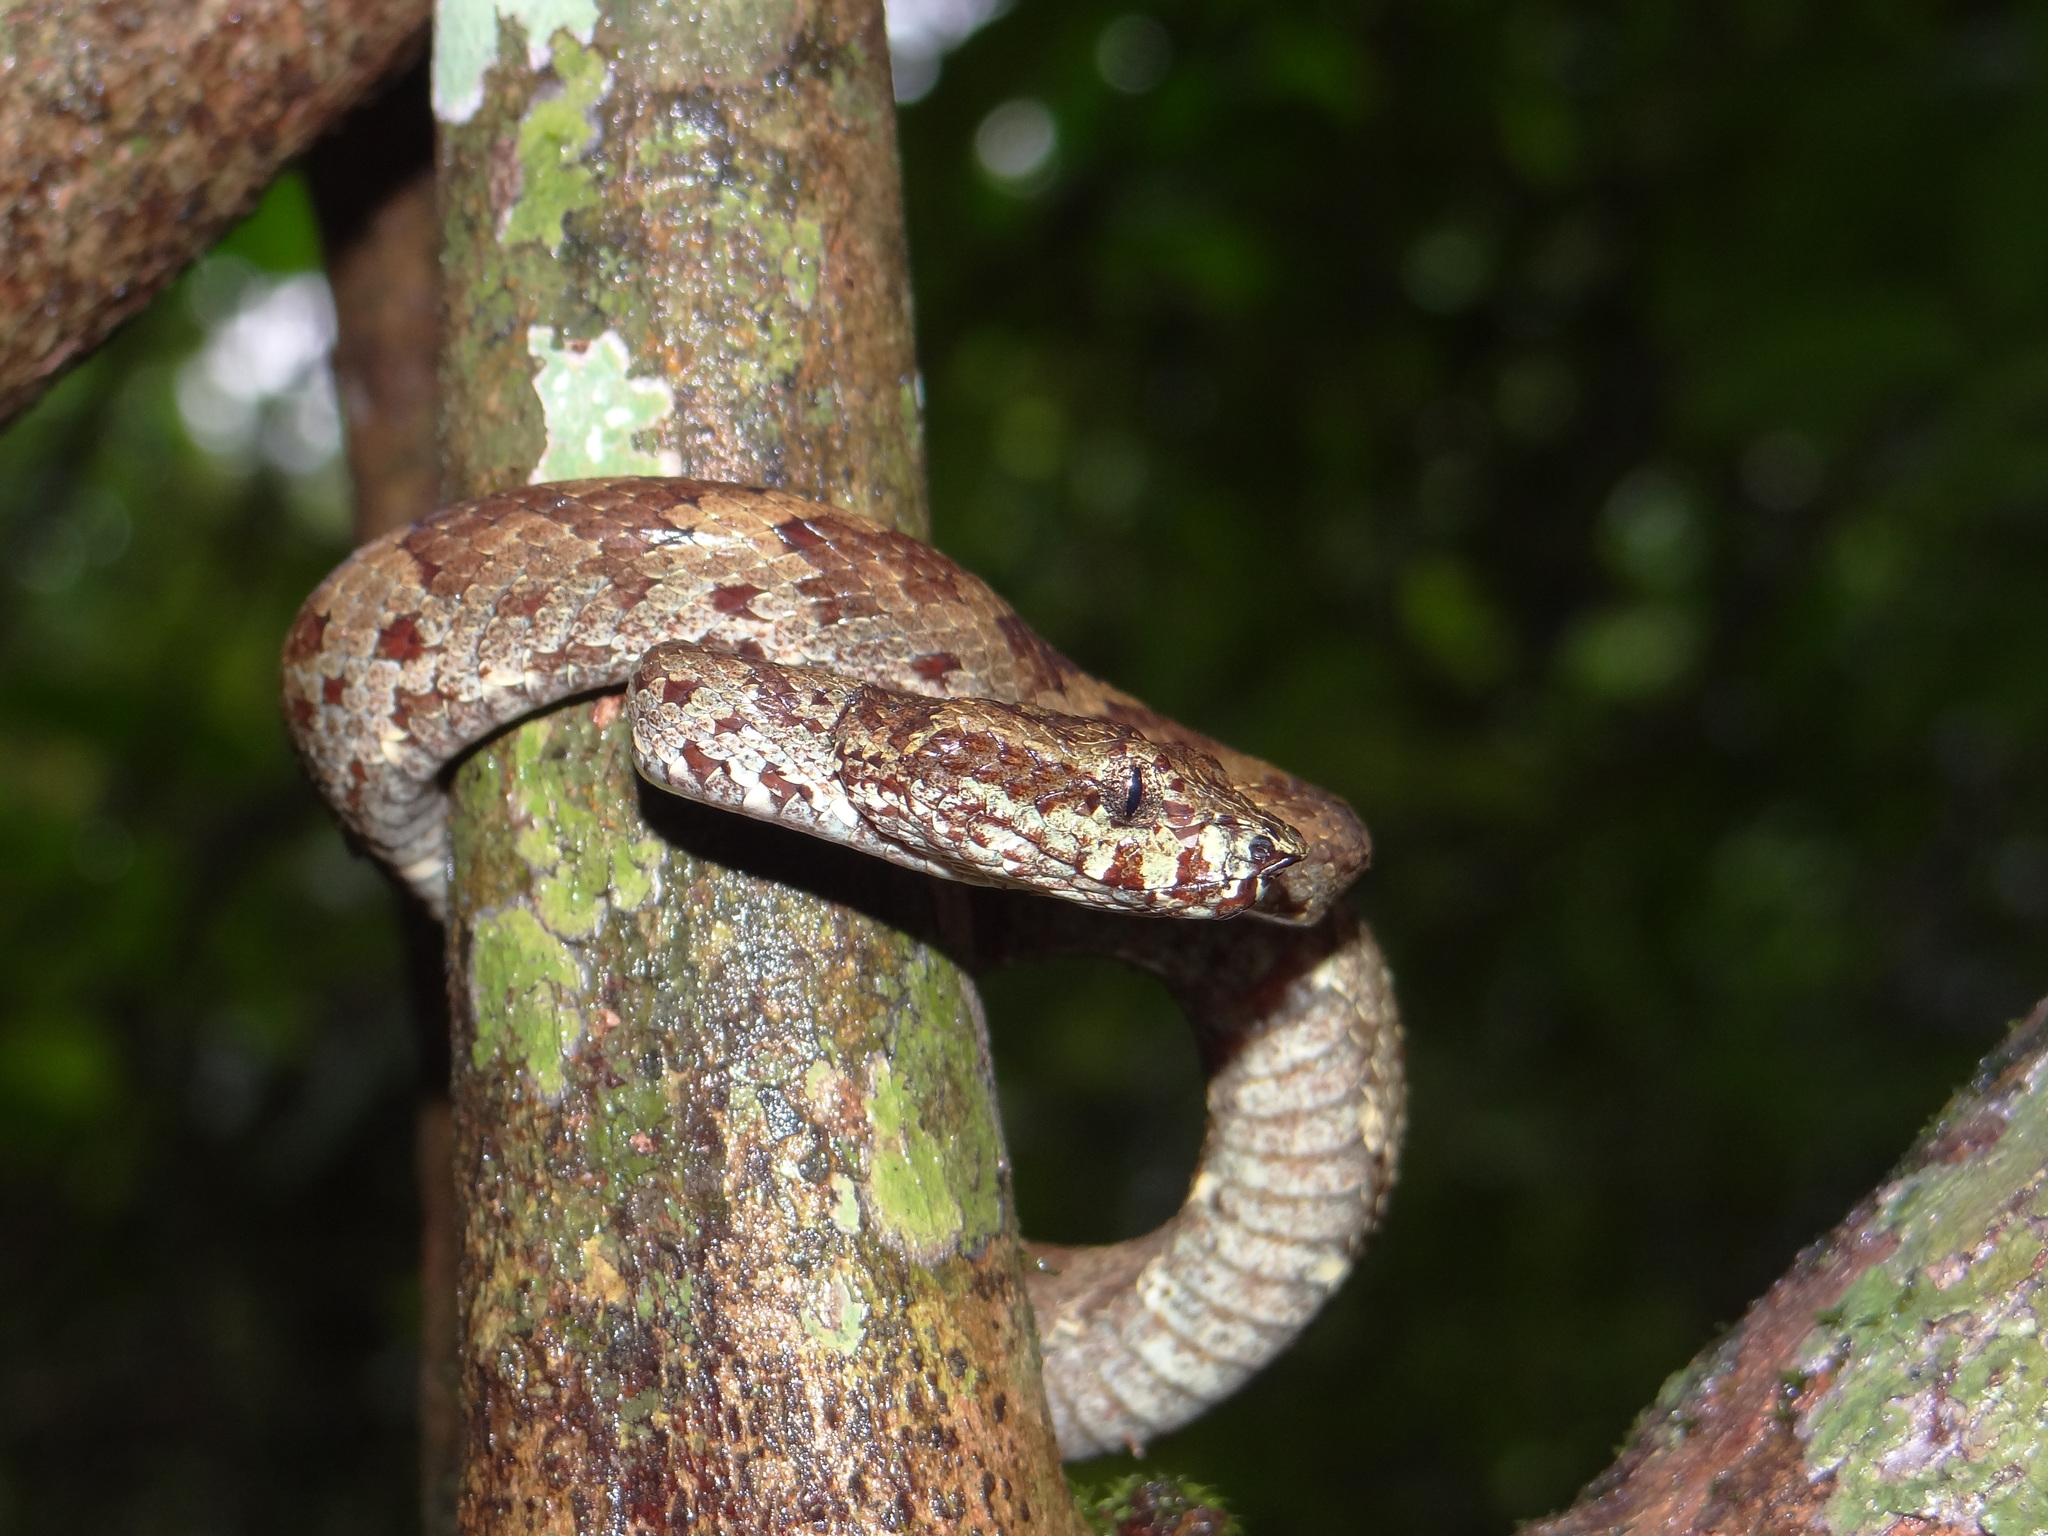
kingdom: Animalia
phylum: Chordata
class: Squamata
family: Viperidae
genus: Craspedocephalus
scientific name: Craspedocephalus malabaricus
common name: Malabarian pit viper
